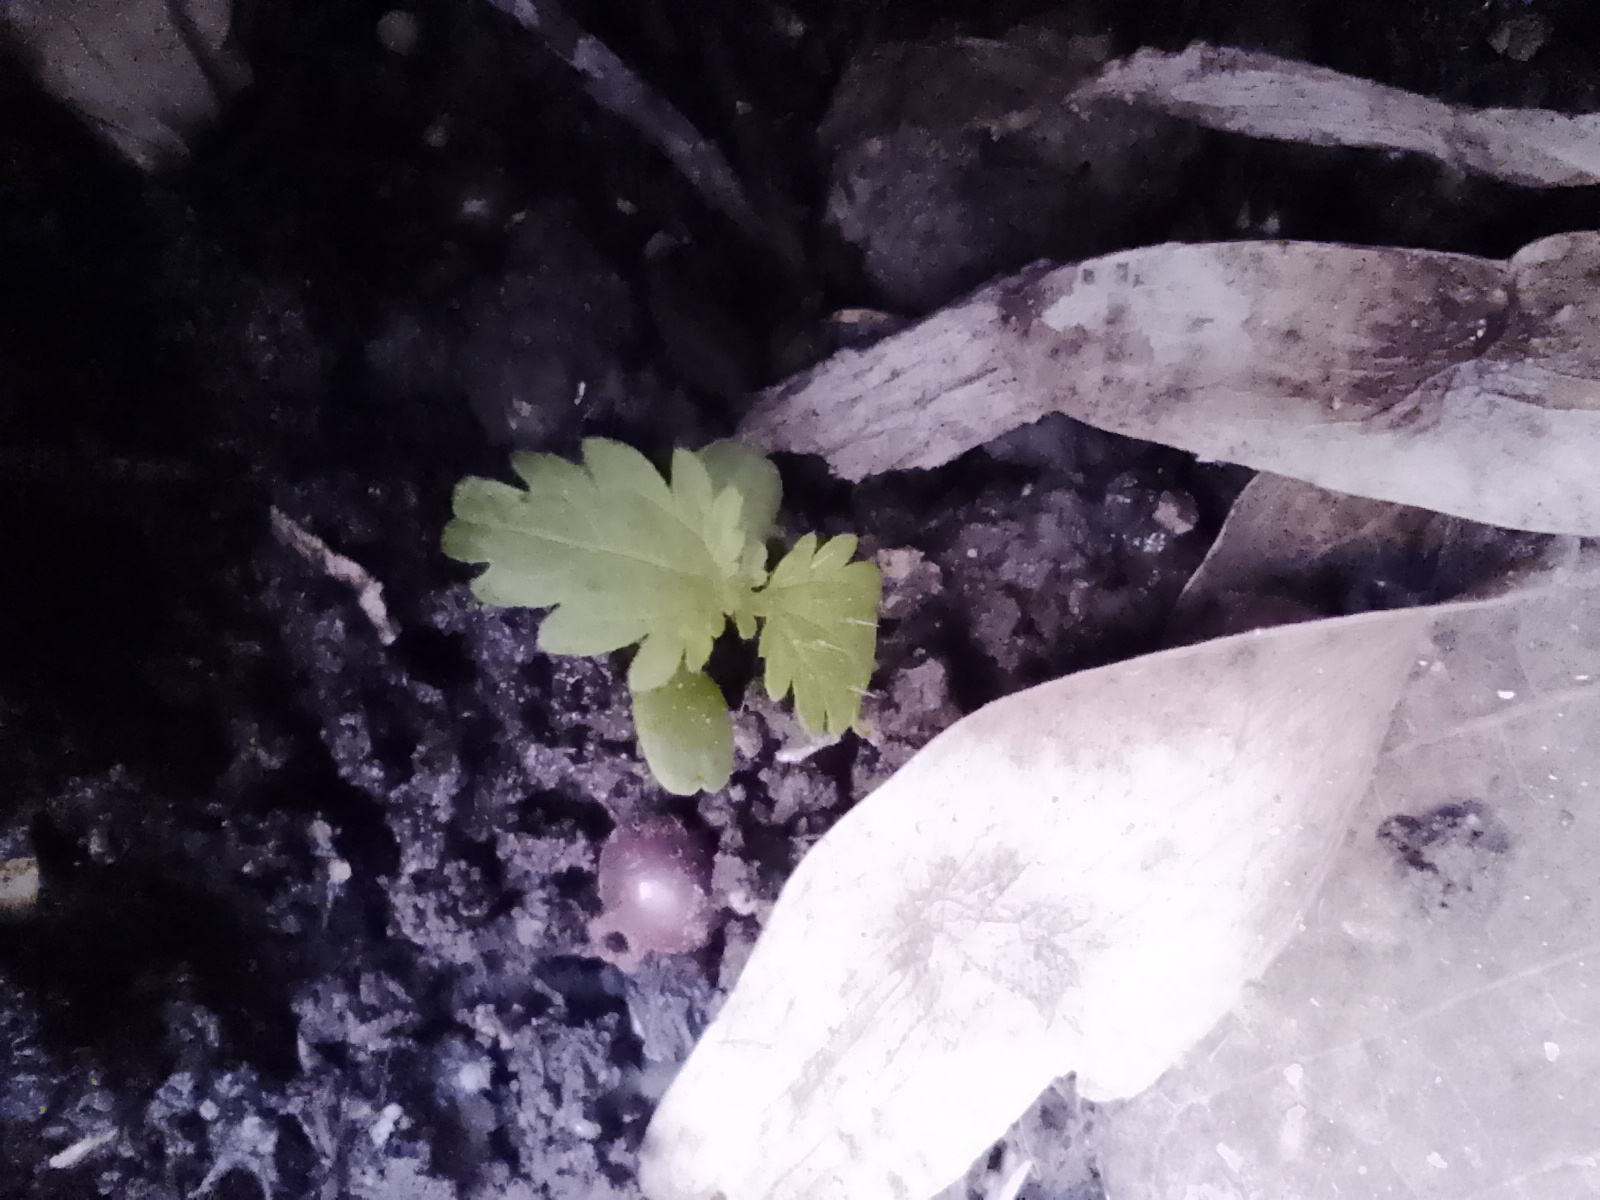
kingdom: Plantae
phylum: Tracheophyta
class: Magnoliopsida
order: Rosales
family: Urticaceae
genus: Urtica
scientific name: Urtica dioica
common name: Common nettle
